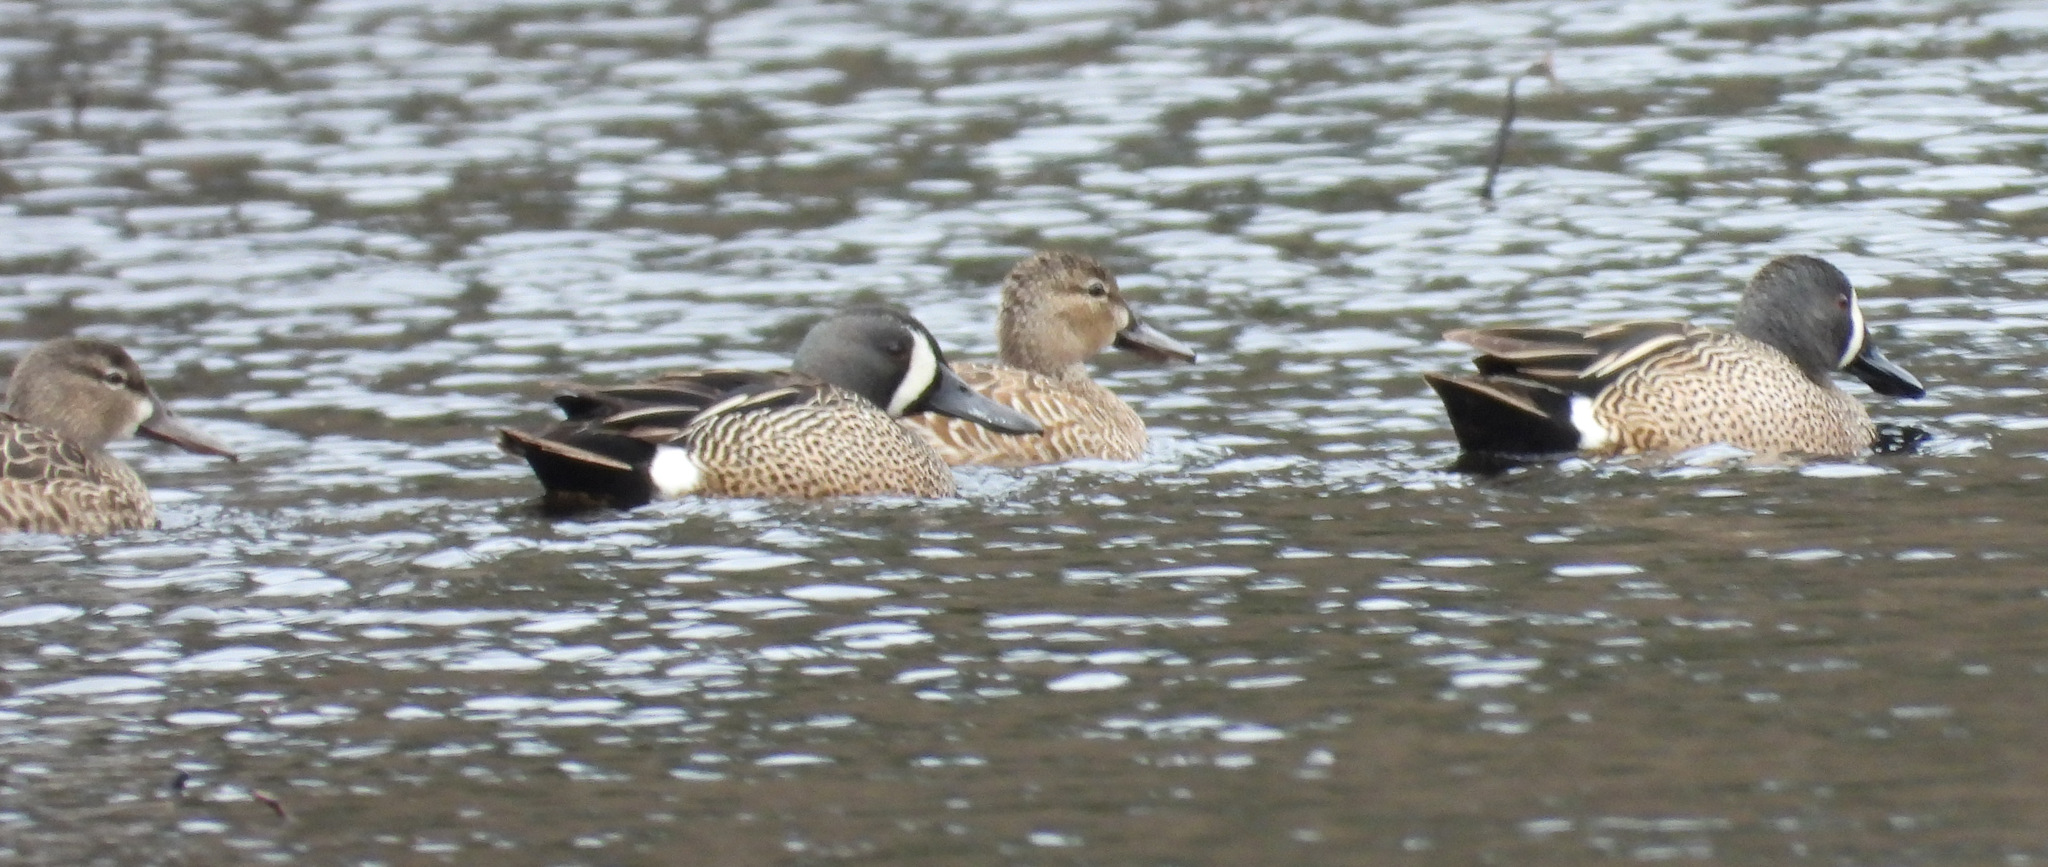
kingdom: Animalia
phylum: Chordata
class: Aves
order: Anseriformes
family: Anatidae
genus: Spatula
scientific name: Spatula discors
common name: Blue-winged teal
